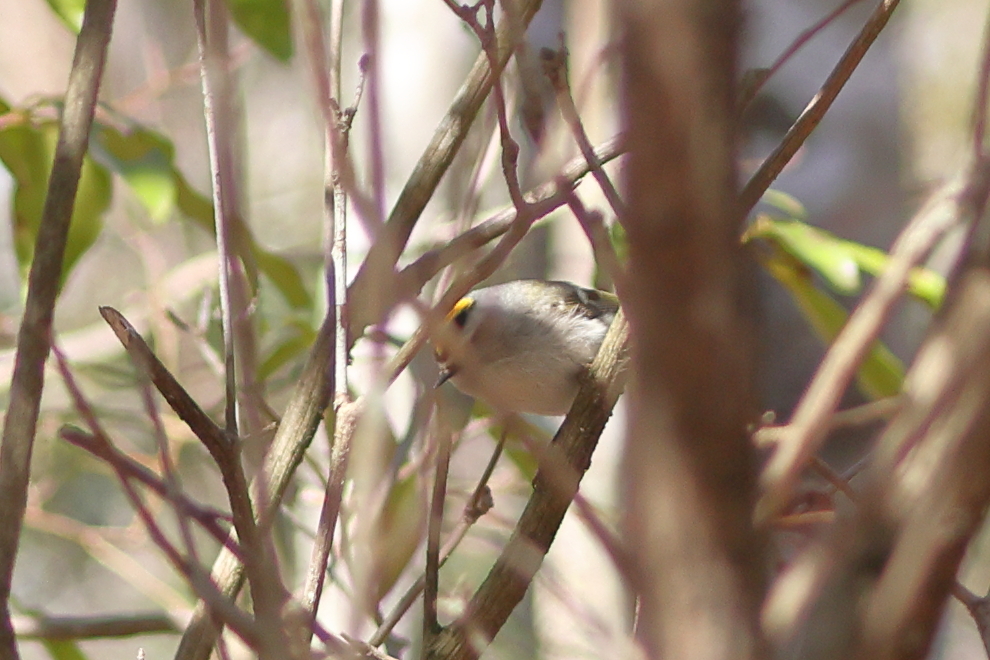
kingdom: Animalia
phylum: Chordata
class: Aves
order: Passeriformes
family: Regulidae
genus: Regulus
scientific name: Regulus satrapa
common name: Golden-crowned kinglet
